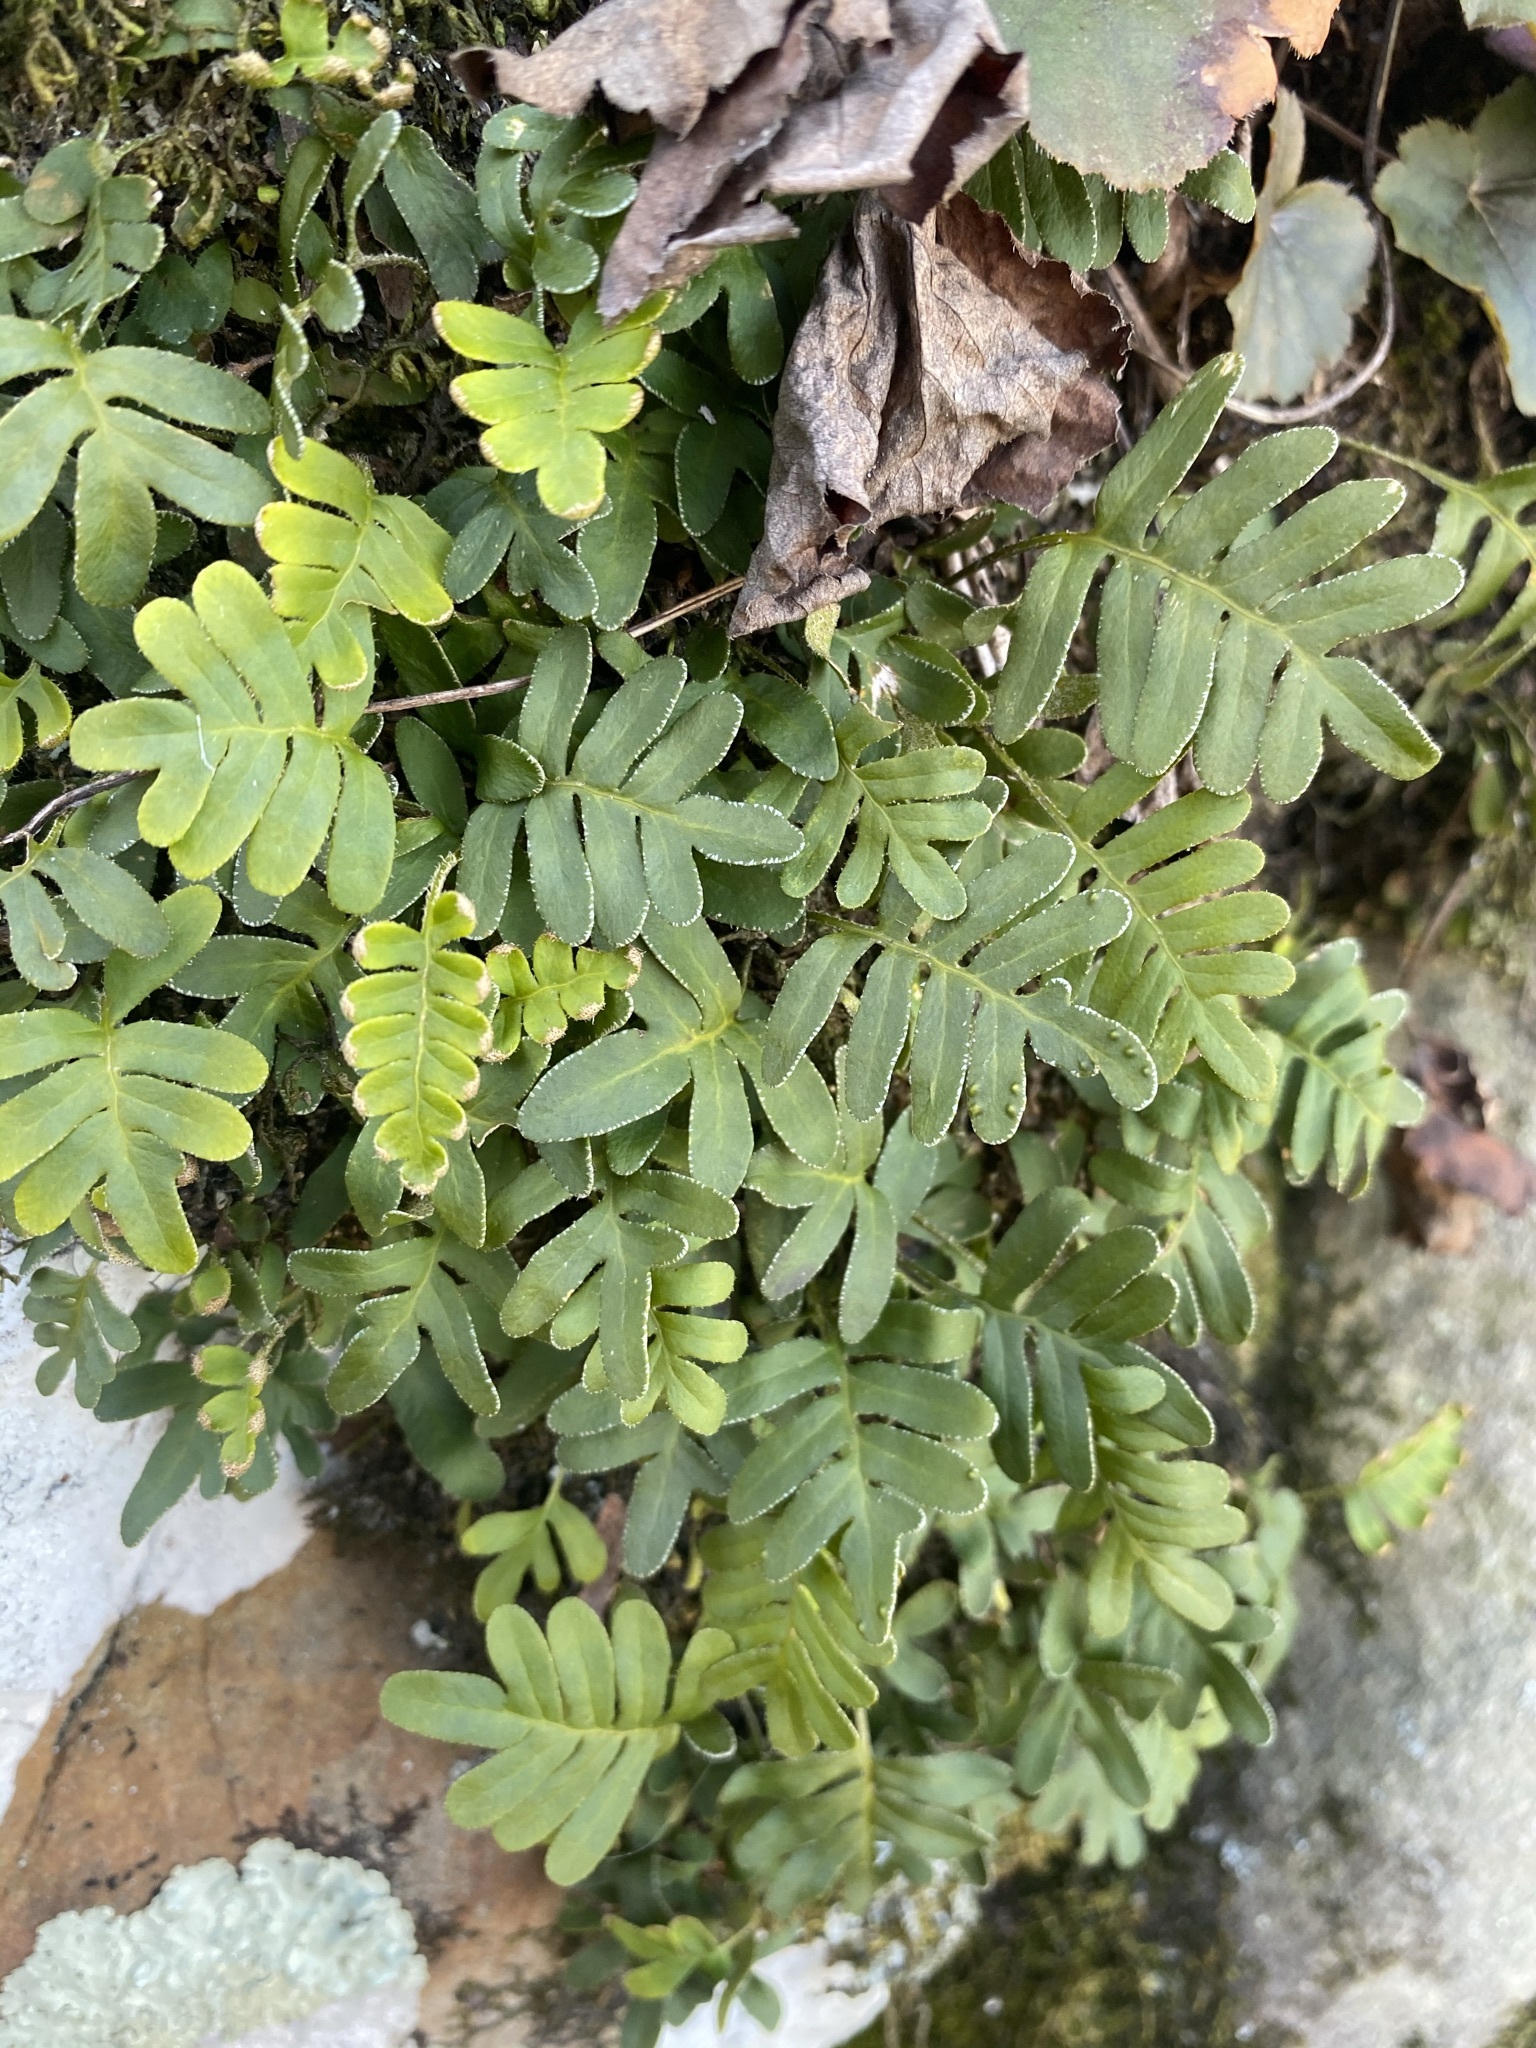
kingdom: Plantae
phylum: Tracheophyta
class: Polypodiopsida
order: Polypodiales
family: Polypodiaceae
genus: Pleopeltis
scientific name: Pleopeltis michauxiana
